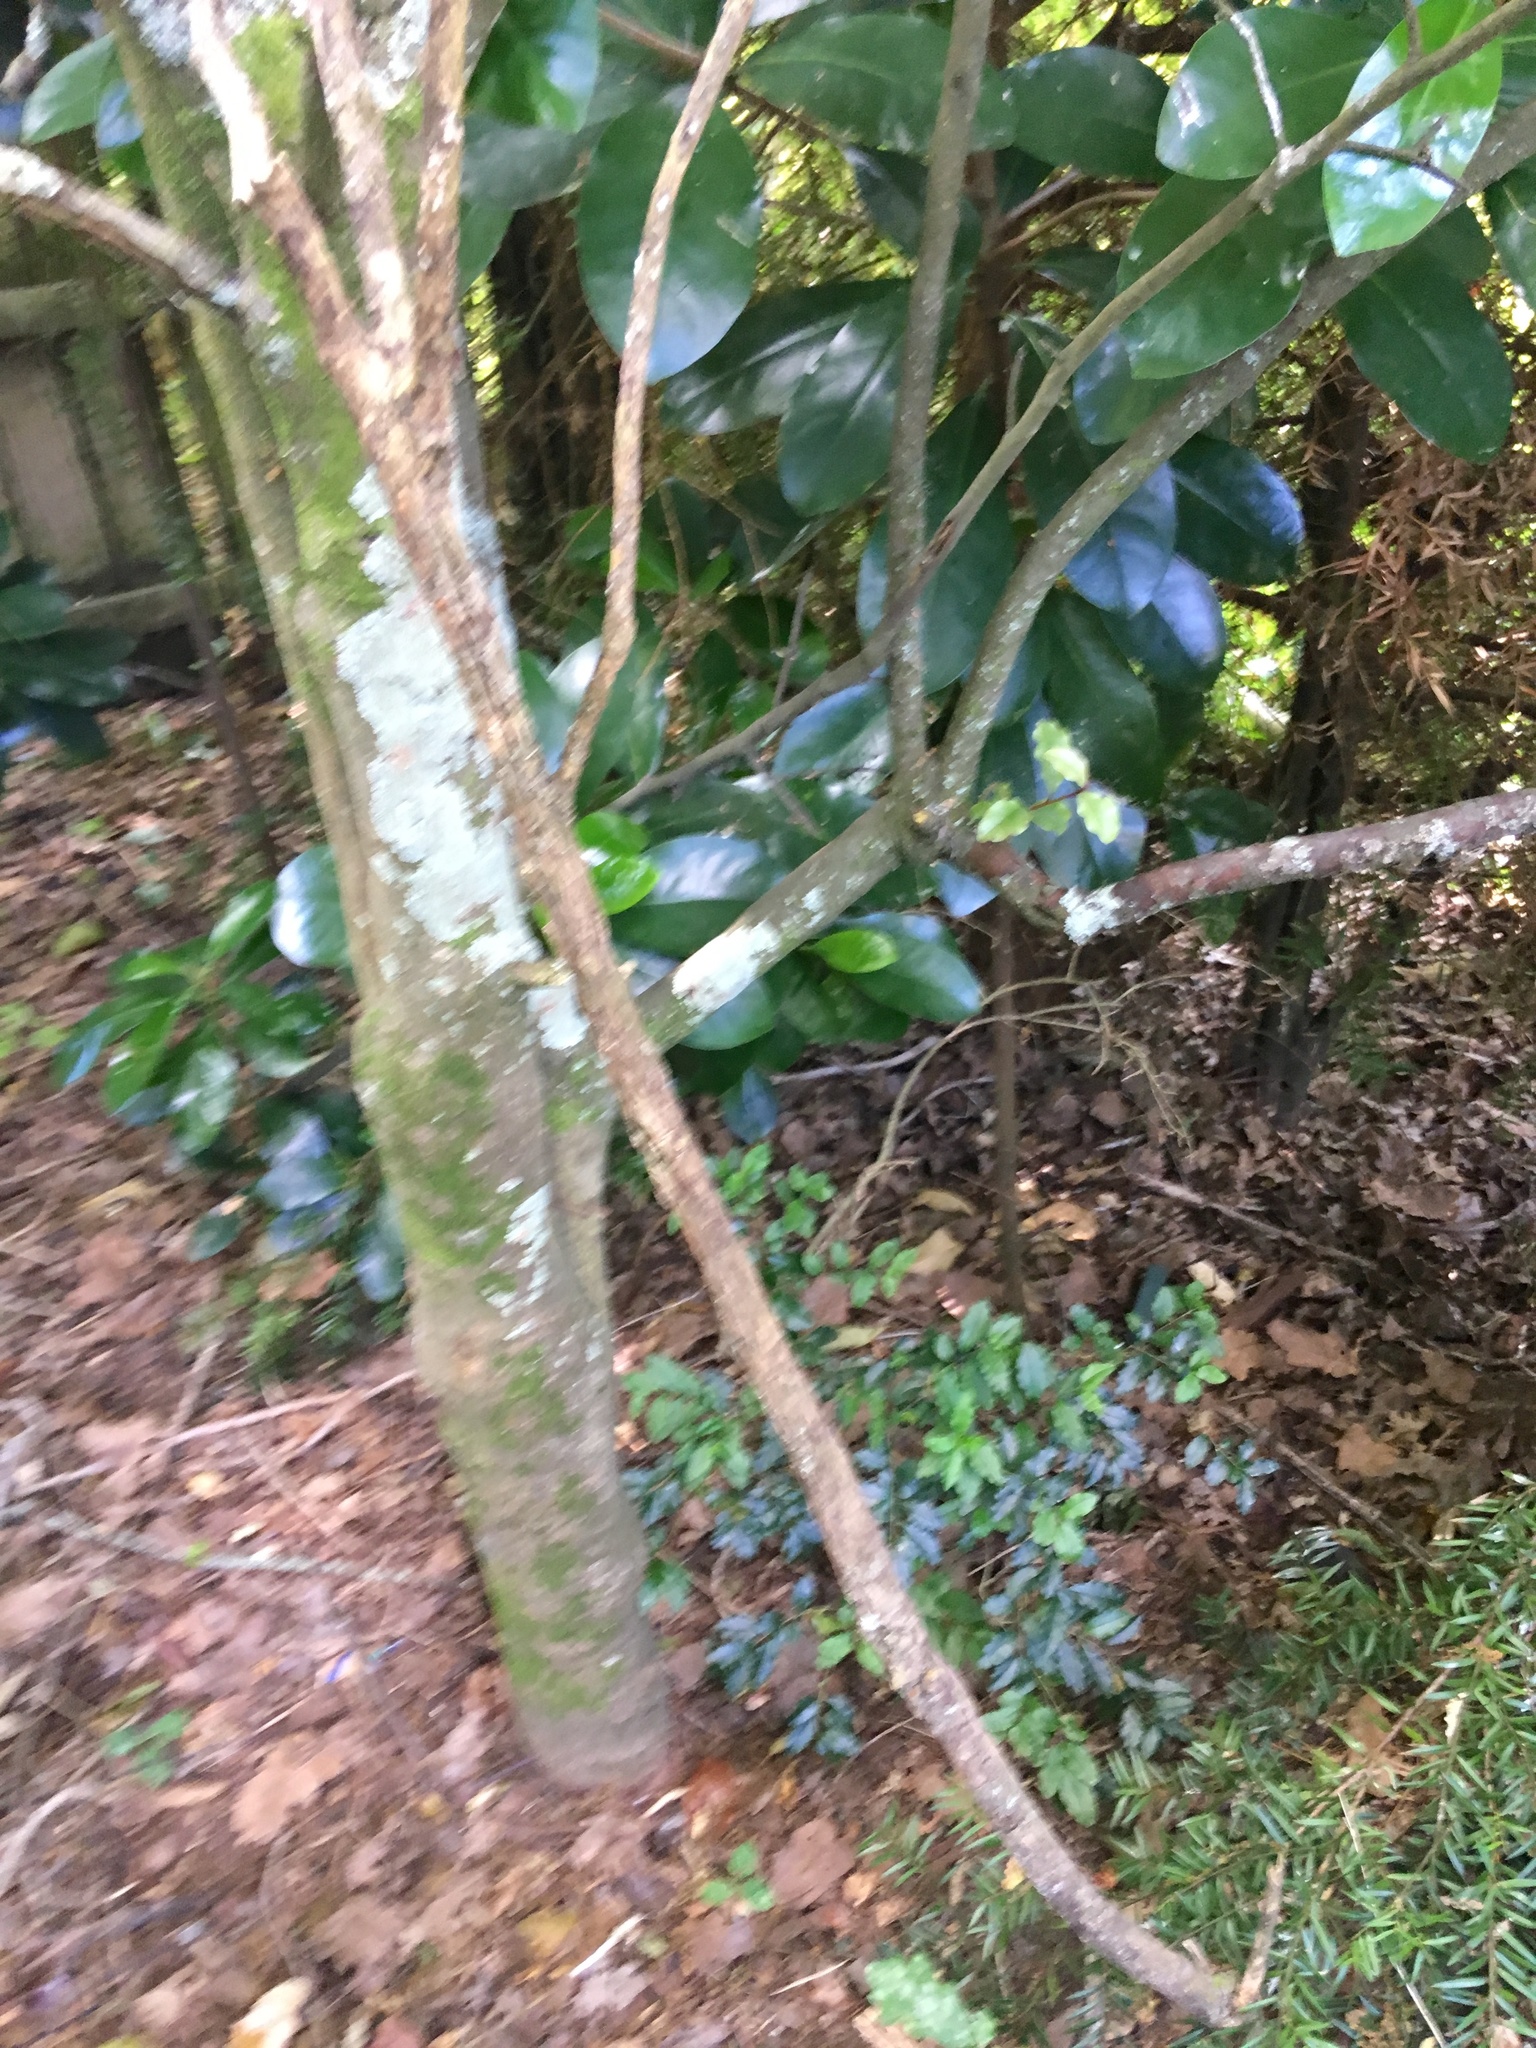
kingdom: Plantae
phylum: Tracheophyta
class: Magnoliopsida
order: Lamiales
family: Oleaceae
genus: Ligustrum
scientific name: Ligustrum sinense
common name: Chinese privet
